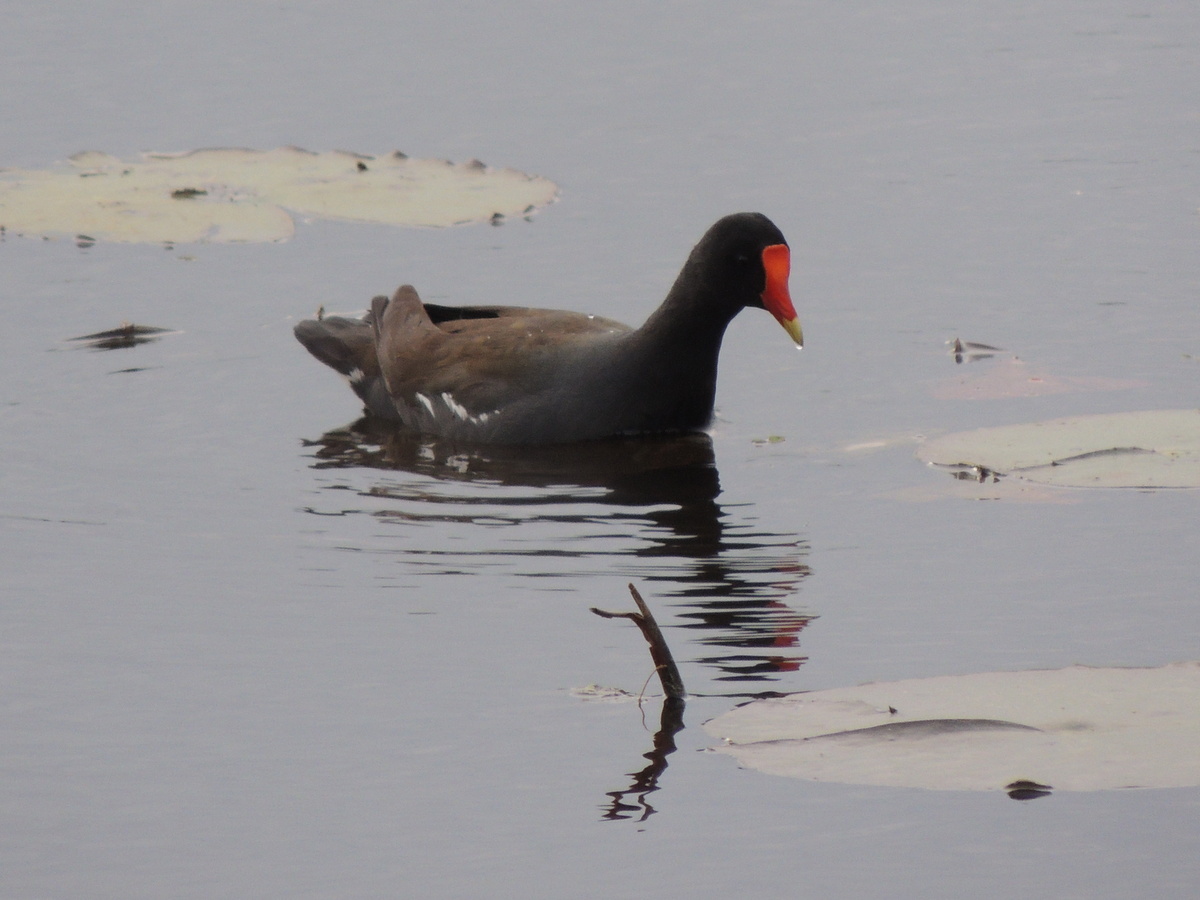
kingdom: Animalia
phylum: Chordata
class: Aves
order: Gruiformes
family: Rallidae
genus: Gallinula
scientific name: Gallinula chloropus
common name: Common moorhen
